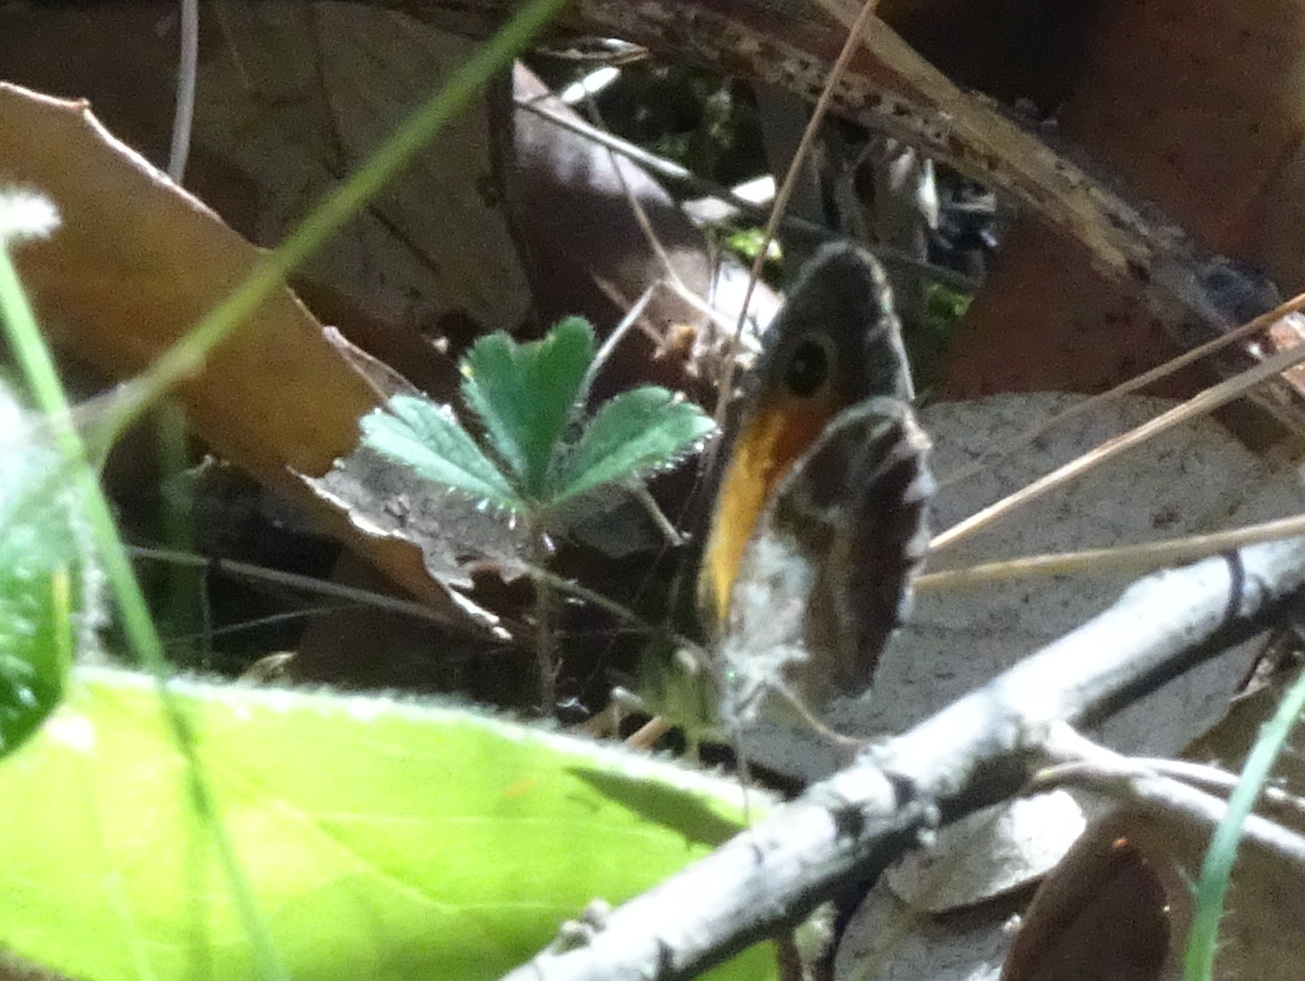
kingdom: Animalia
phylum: Arthropoda
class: Insecta
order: Lepidoptera
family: Nymphalidae
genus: Pyronia
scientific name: Pyronia cecilia
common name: Southern gatekeeper
